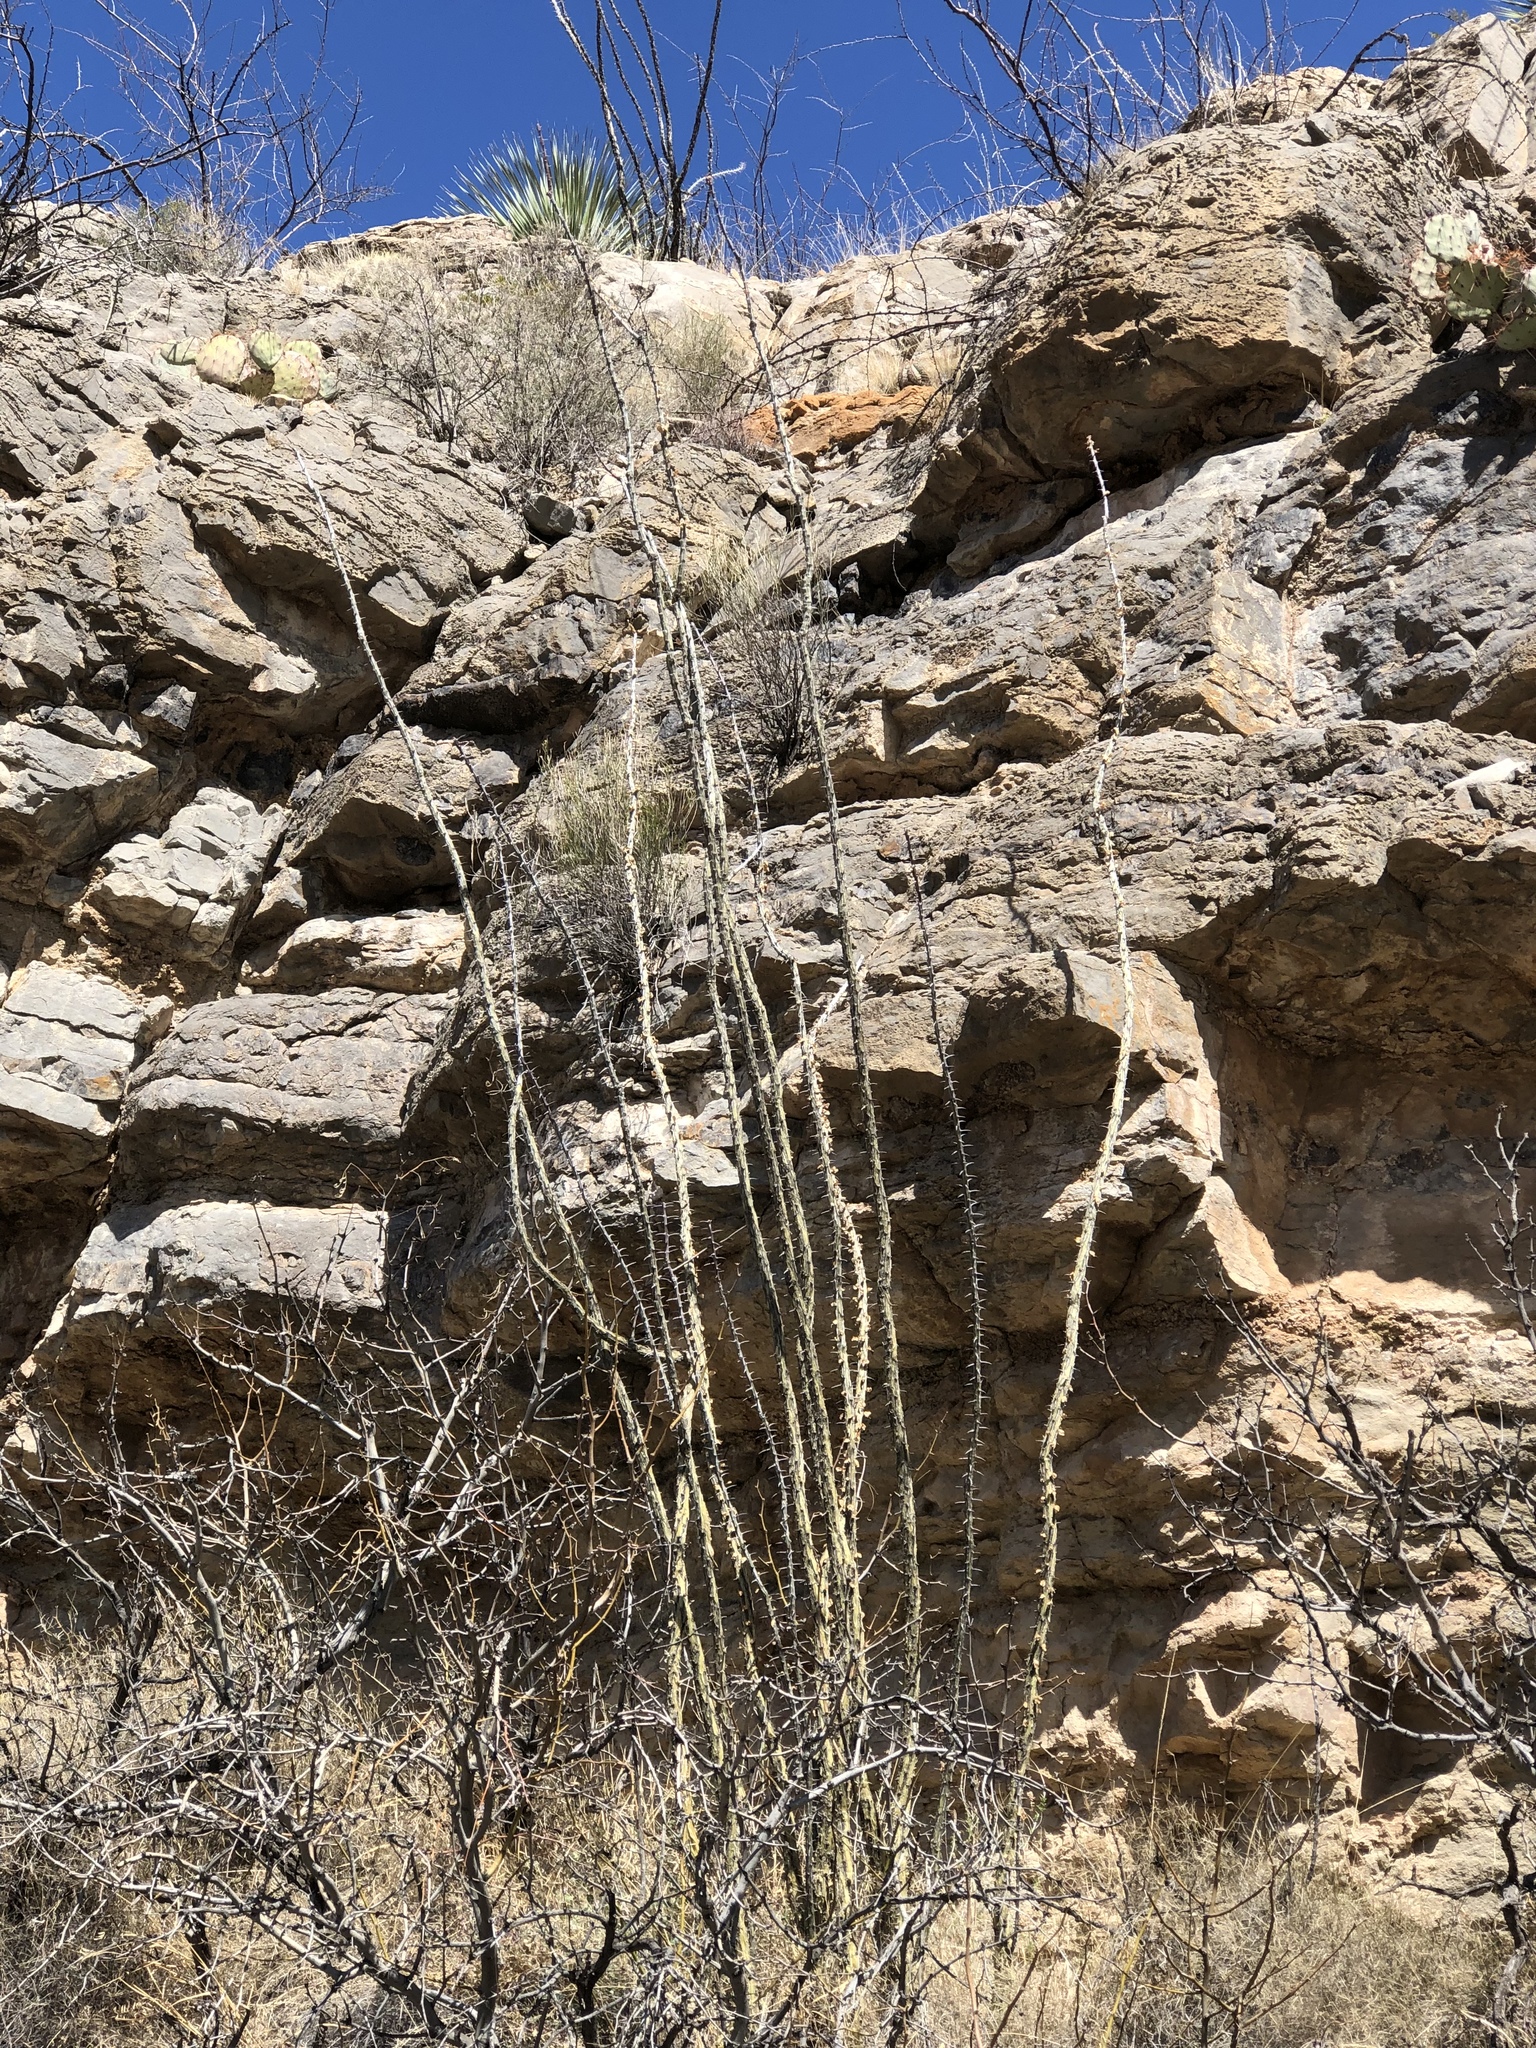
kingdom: Plantae
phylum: Tracheophyta
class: Magnoliopsida
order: Ericales
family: Fouquieriaceae
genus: Fouquieria
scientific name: Fouquieria splendens
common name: Vine-cactus
